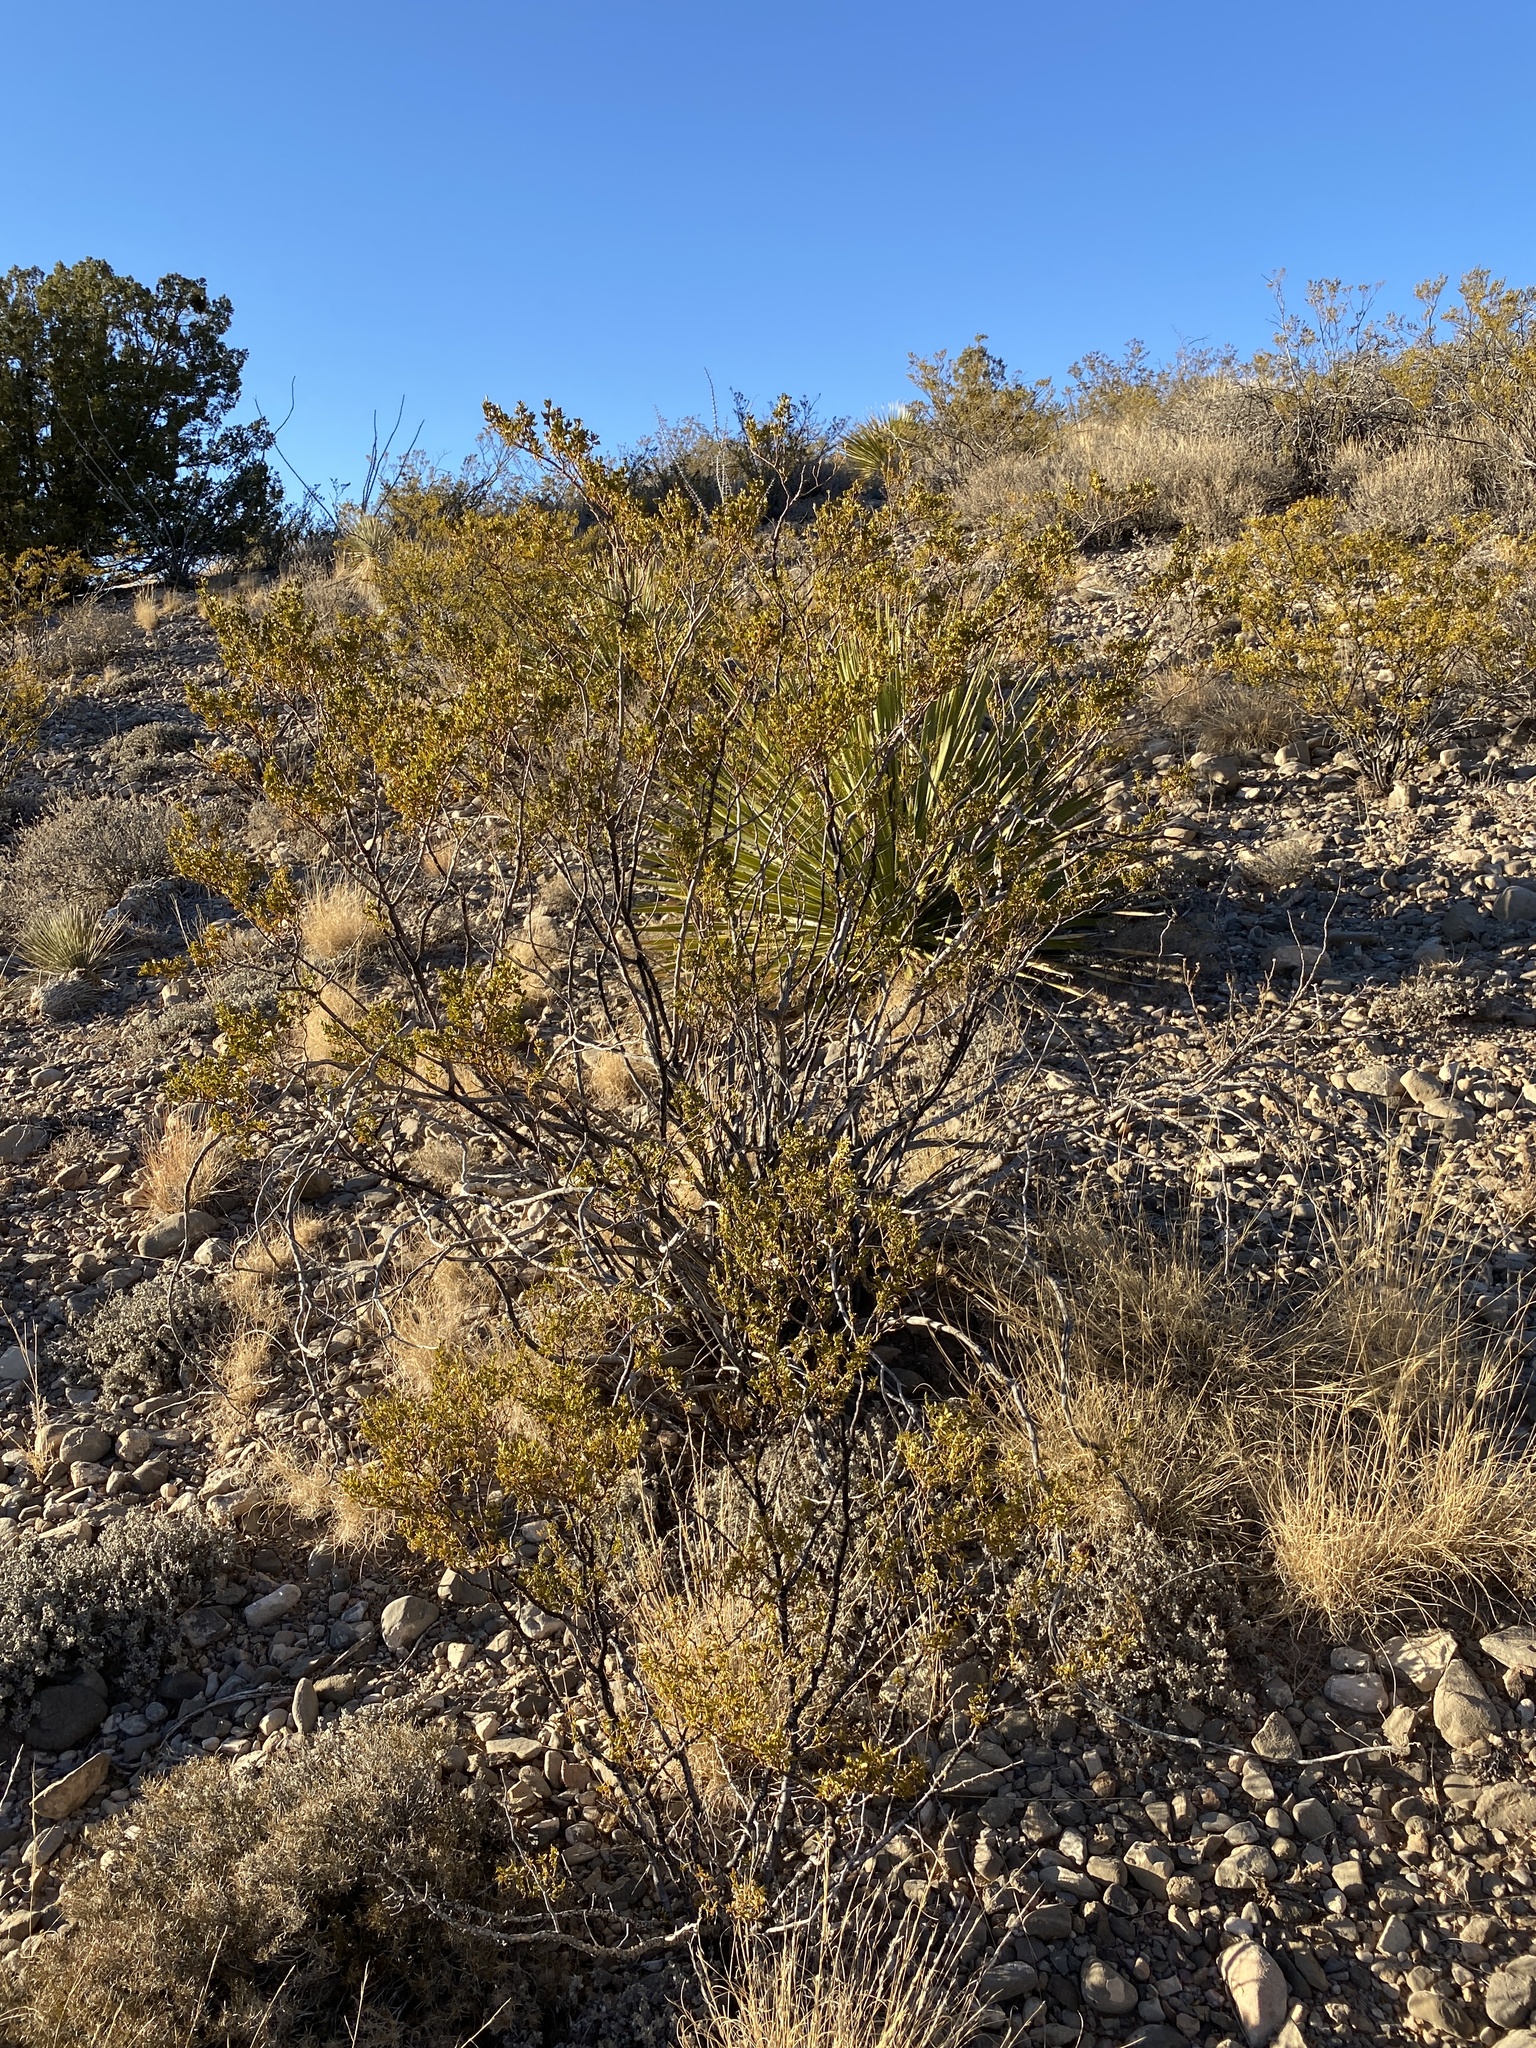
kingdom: Plantae
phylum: Tracheophyta
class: Magnoliopsida
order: Zygophyllales
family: Zygophyllaceae
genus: Larrea
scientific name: Larrea tridentata
